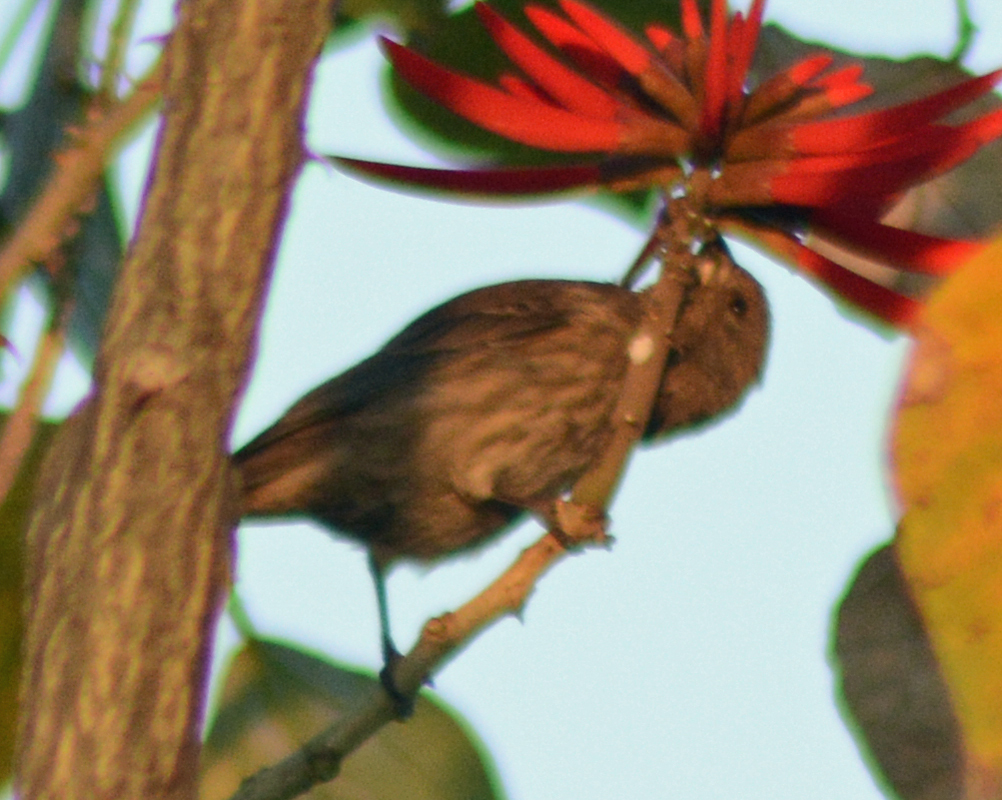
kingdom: Animalia
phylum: Chordata
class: Aves
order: Passeriformes
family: Fringillidae
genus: Haemorhous
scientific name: Haemorhous mexicanus
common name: House finch
